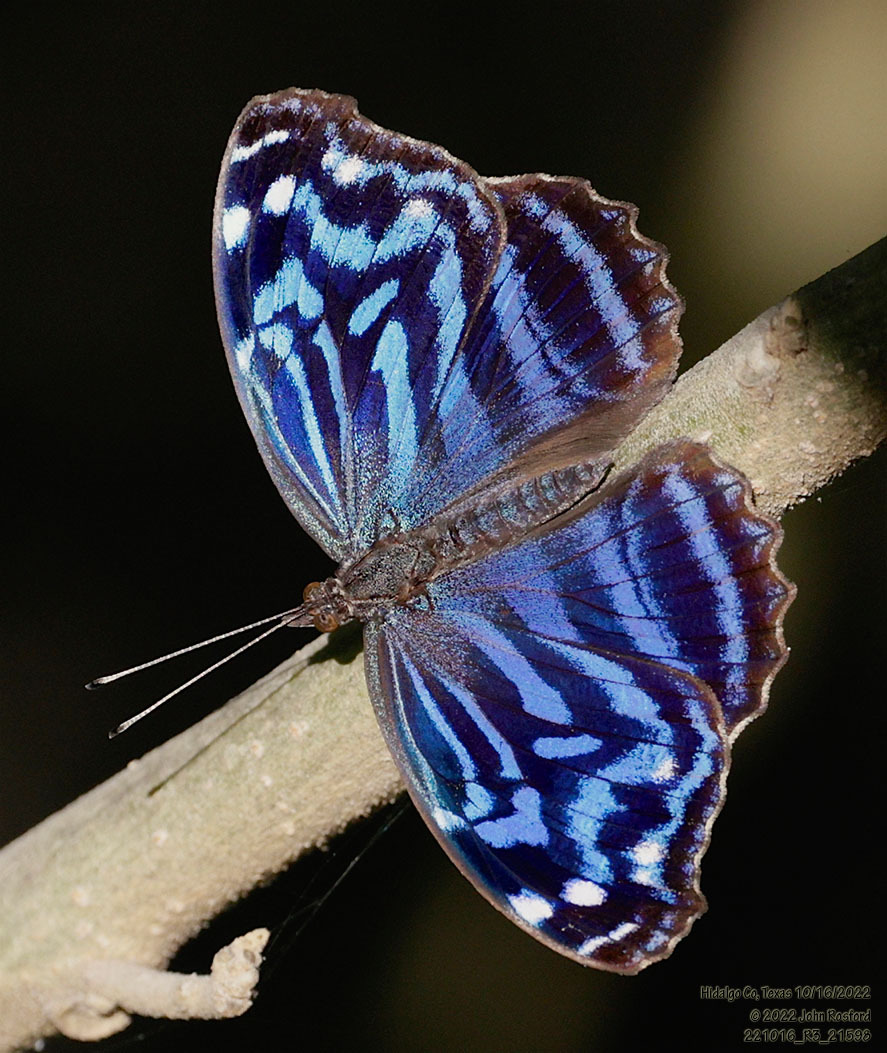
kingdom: Animalia
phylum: Arthropoda
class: Insecta
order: Lepidoptera
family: Nymphalidae
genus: Myscelia
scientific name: Myscelia ethusa
